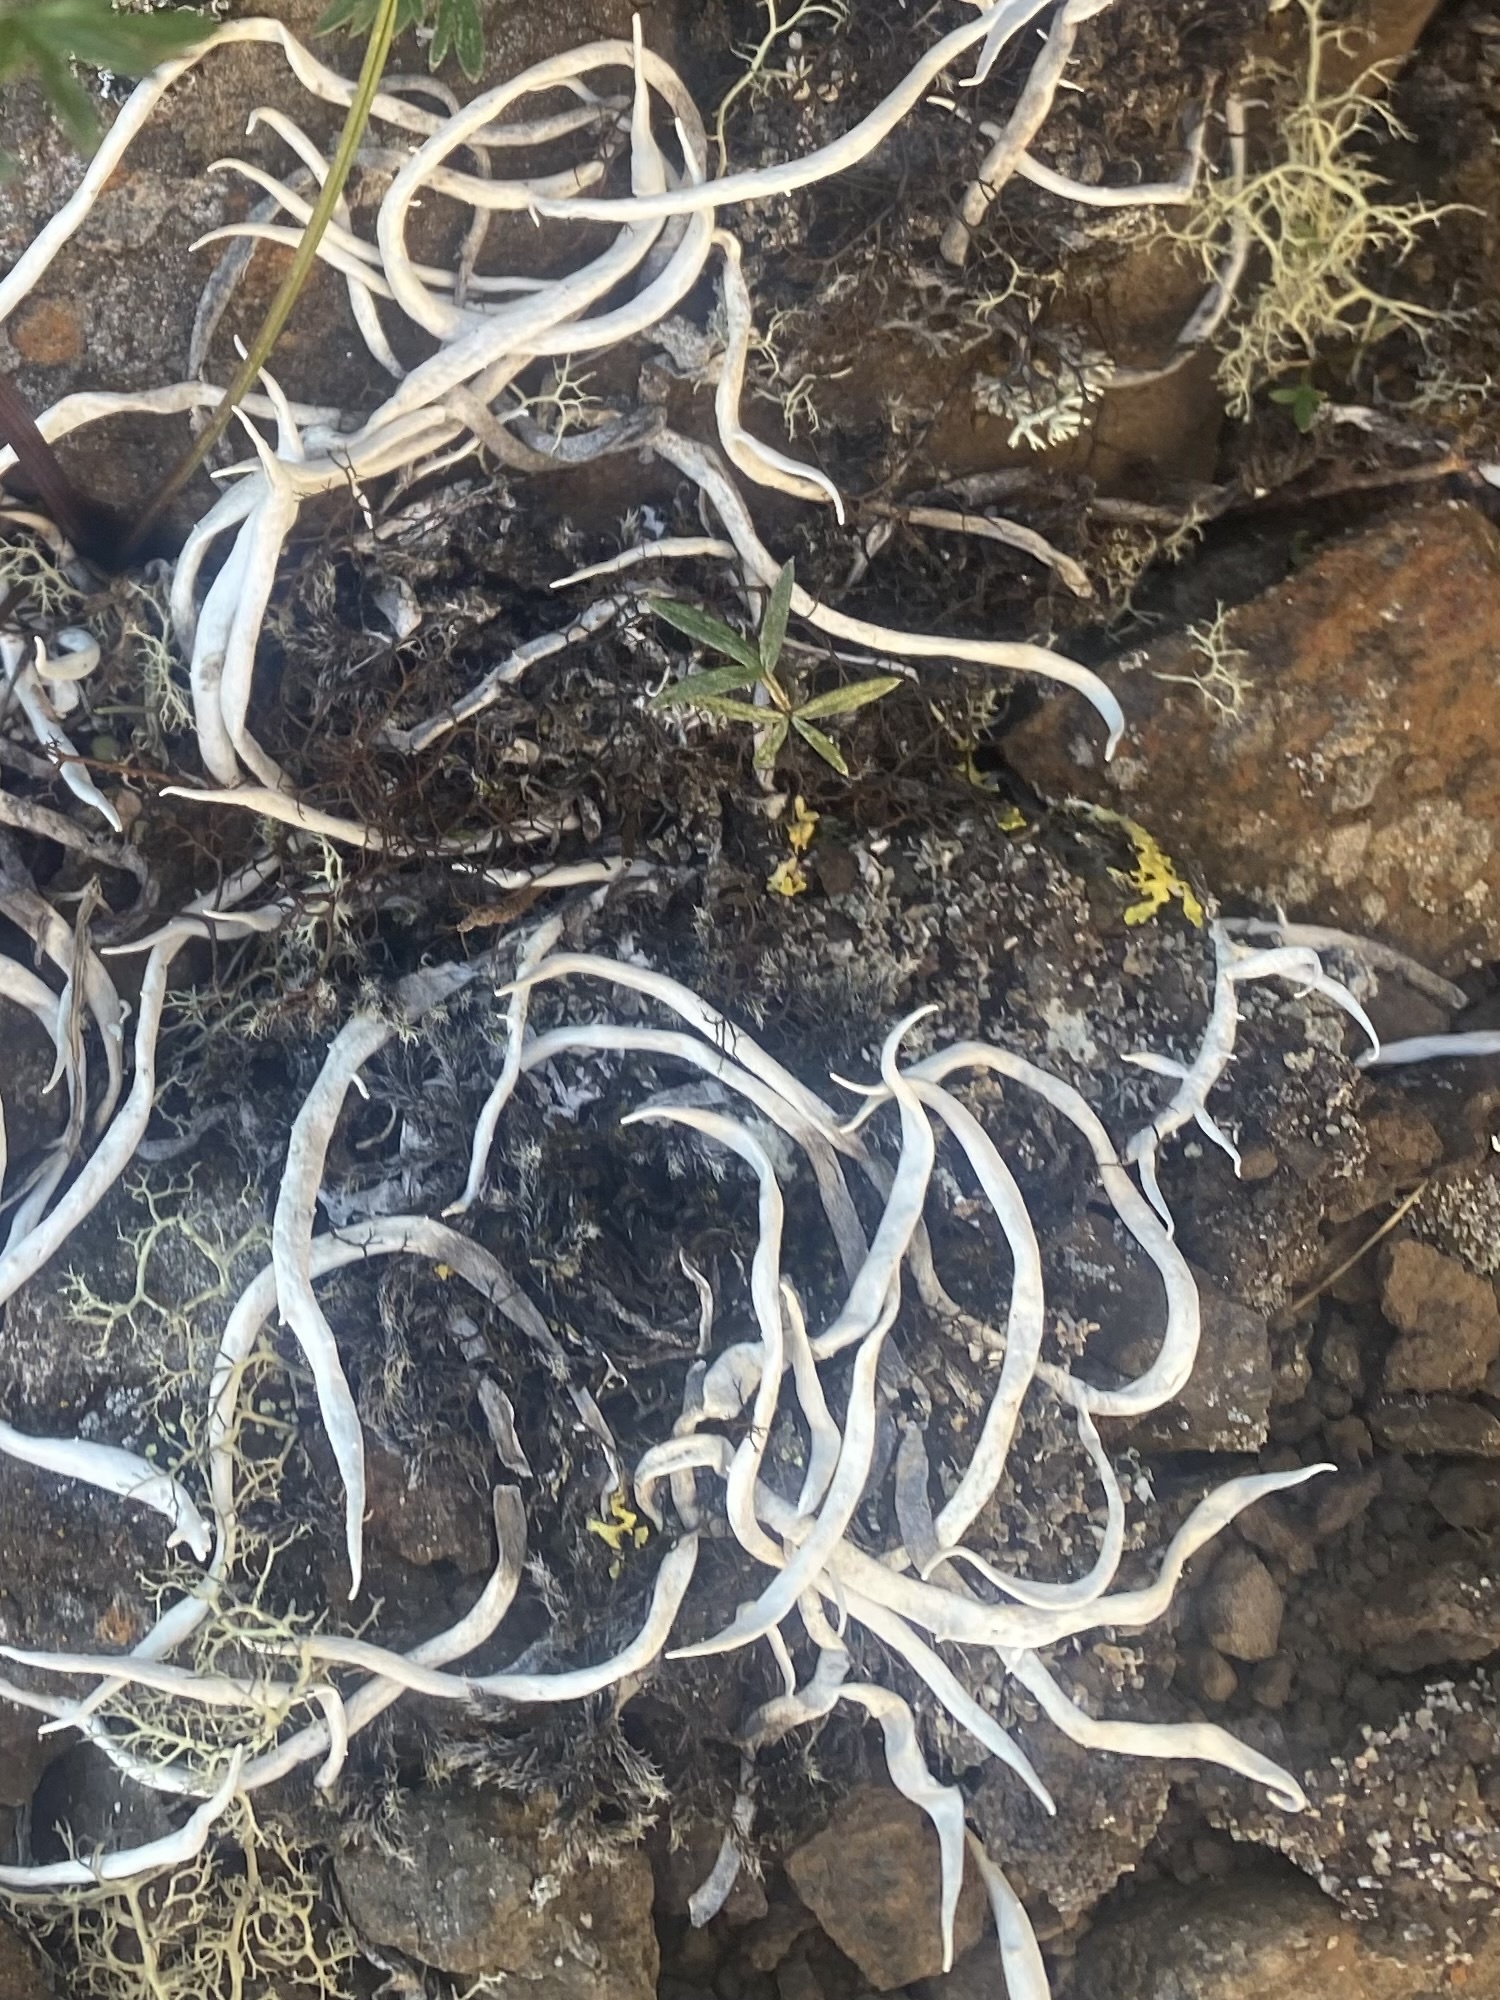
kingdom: Fungi
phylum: Ascomycota
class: Lecanoromycetes
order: Pertusariales
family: Icmadophilaceae
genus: Thamnolia
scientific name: Thamnolia vermicularis
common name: Whiteworm lichen
